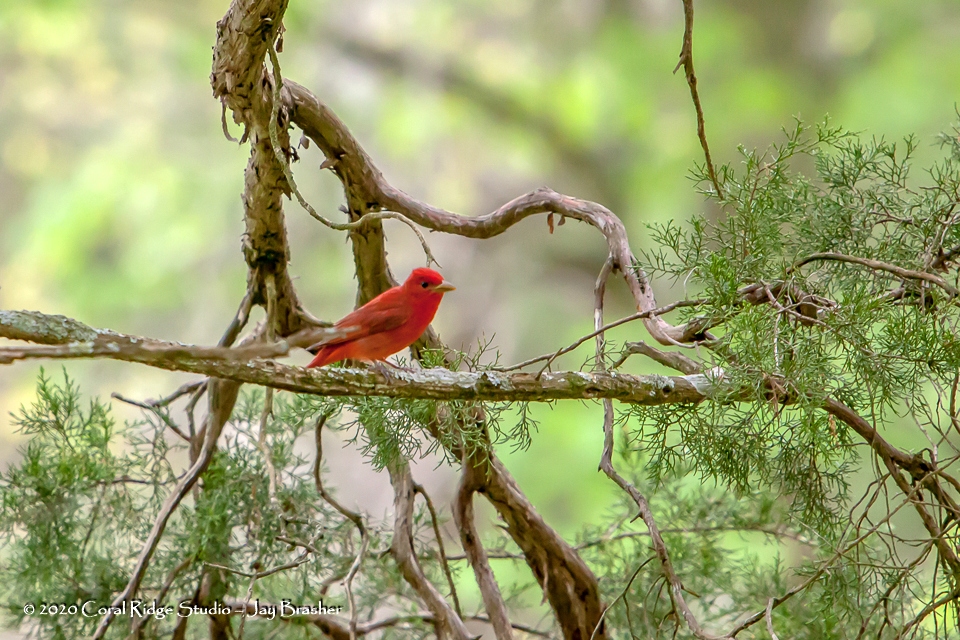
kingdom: Animalia
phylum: Chordata
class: Aves
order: Passeriformes
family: Cardinalidae
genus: Piranga
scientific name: Piranga rubra
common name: Summer tanager
